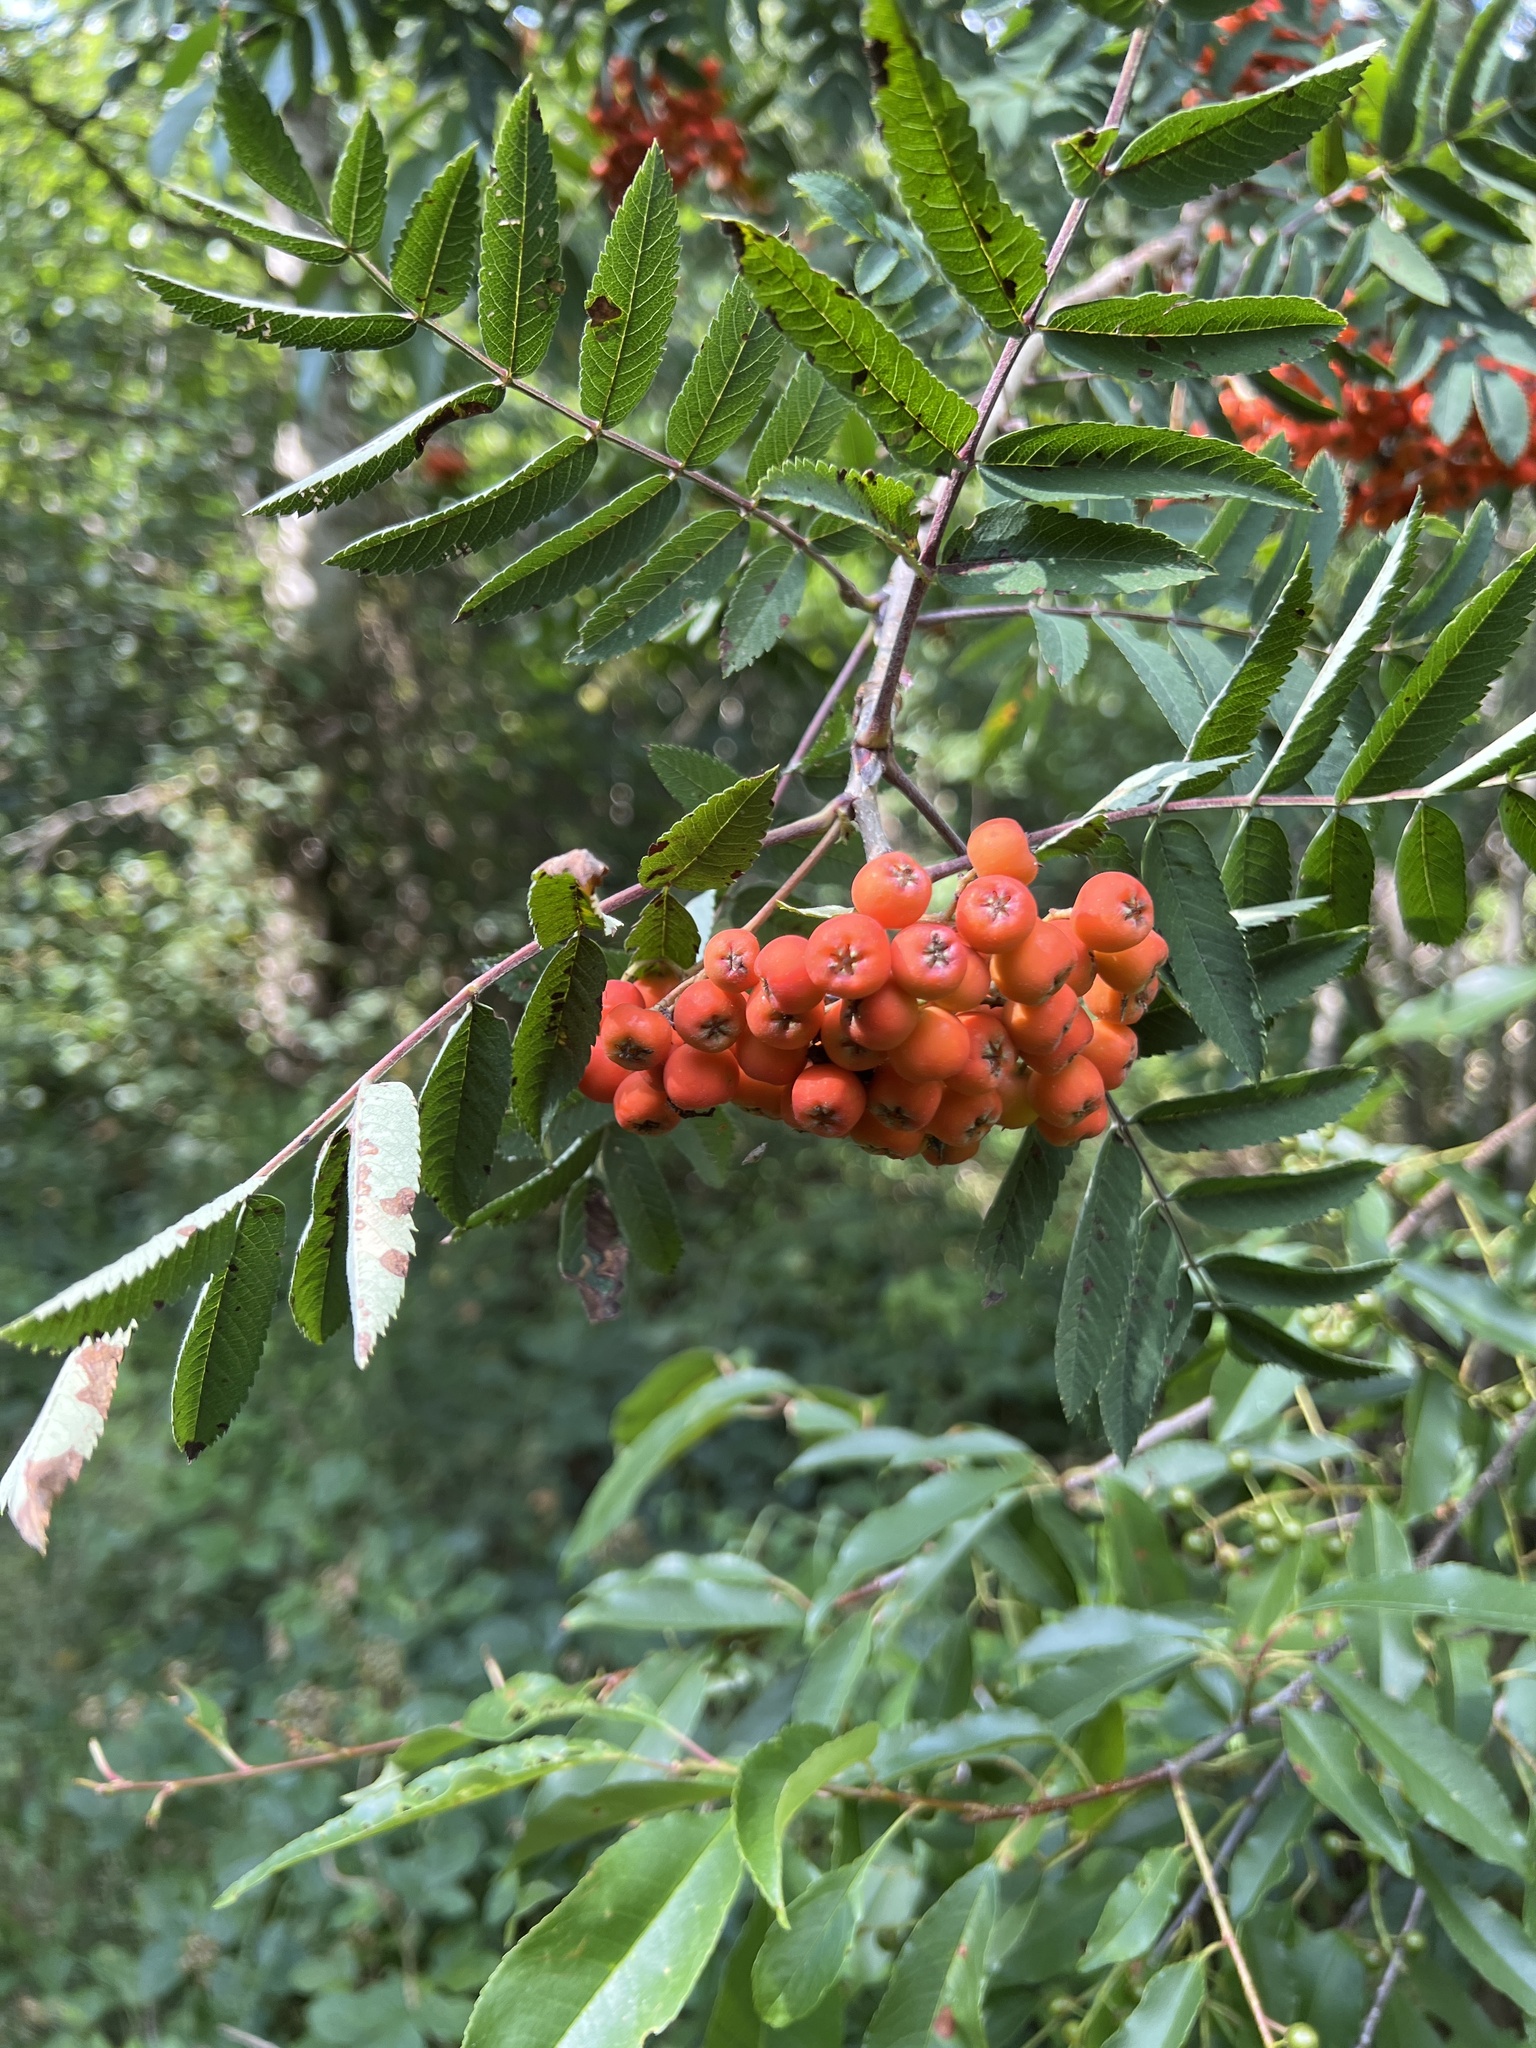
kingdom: Plantae
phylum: Tracheophyta
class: Magnoliopsida
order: Rosales
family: Rosaceae
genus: Sorbus
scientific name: Sorbus aucuparia
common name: Rowan
